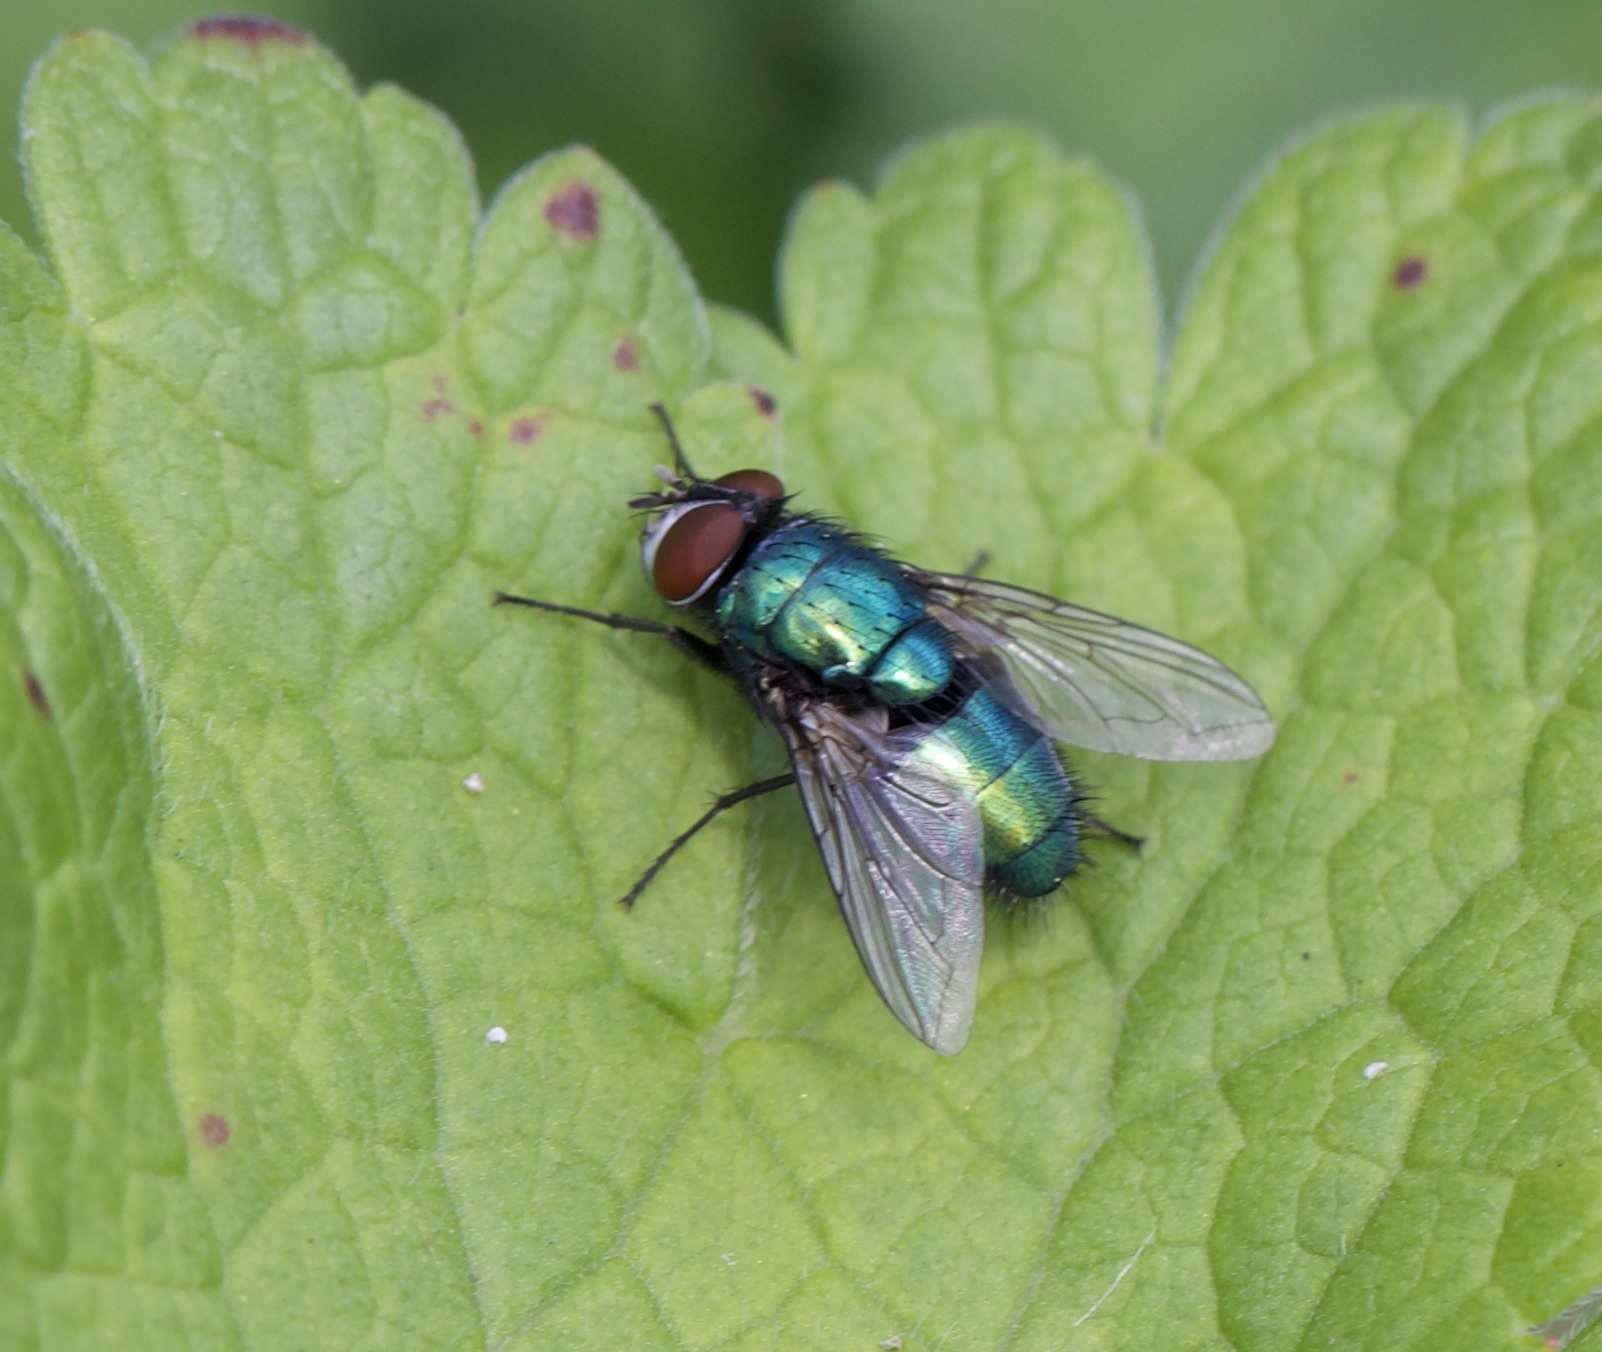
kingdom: Animalia
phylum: Arthropoda
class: Insecta
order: Diptera
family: Calliphoridae
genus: Lucilia
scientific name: Lucilia
